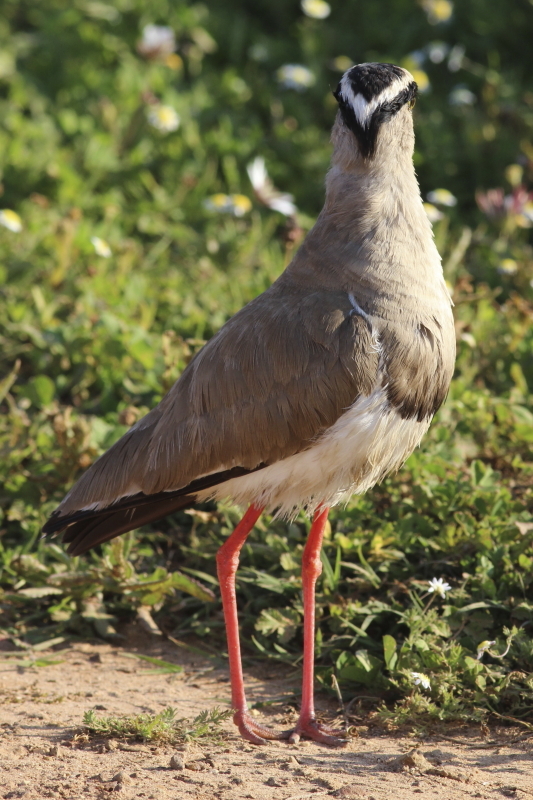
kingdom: Animalia
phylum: Chordata
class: Aves
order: Charadriiformes
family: Charadriidae
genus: Vanellus
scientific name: Vanellus coronatus
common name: Crowned lapwing
